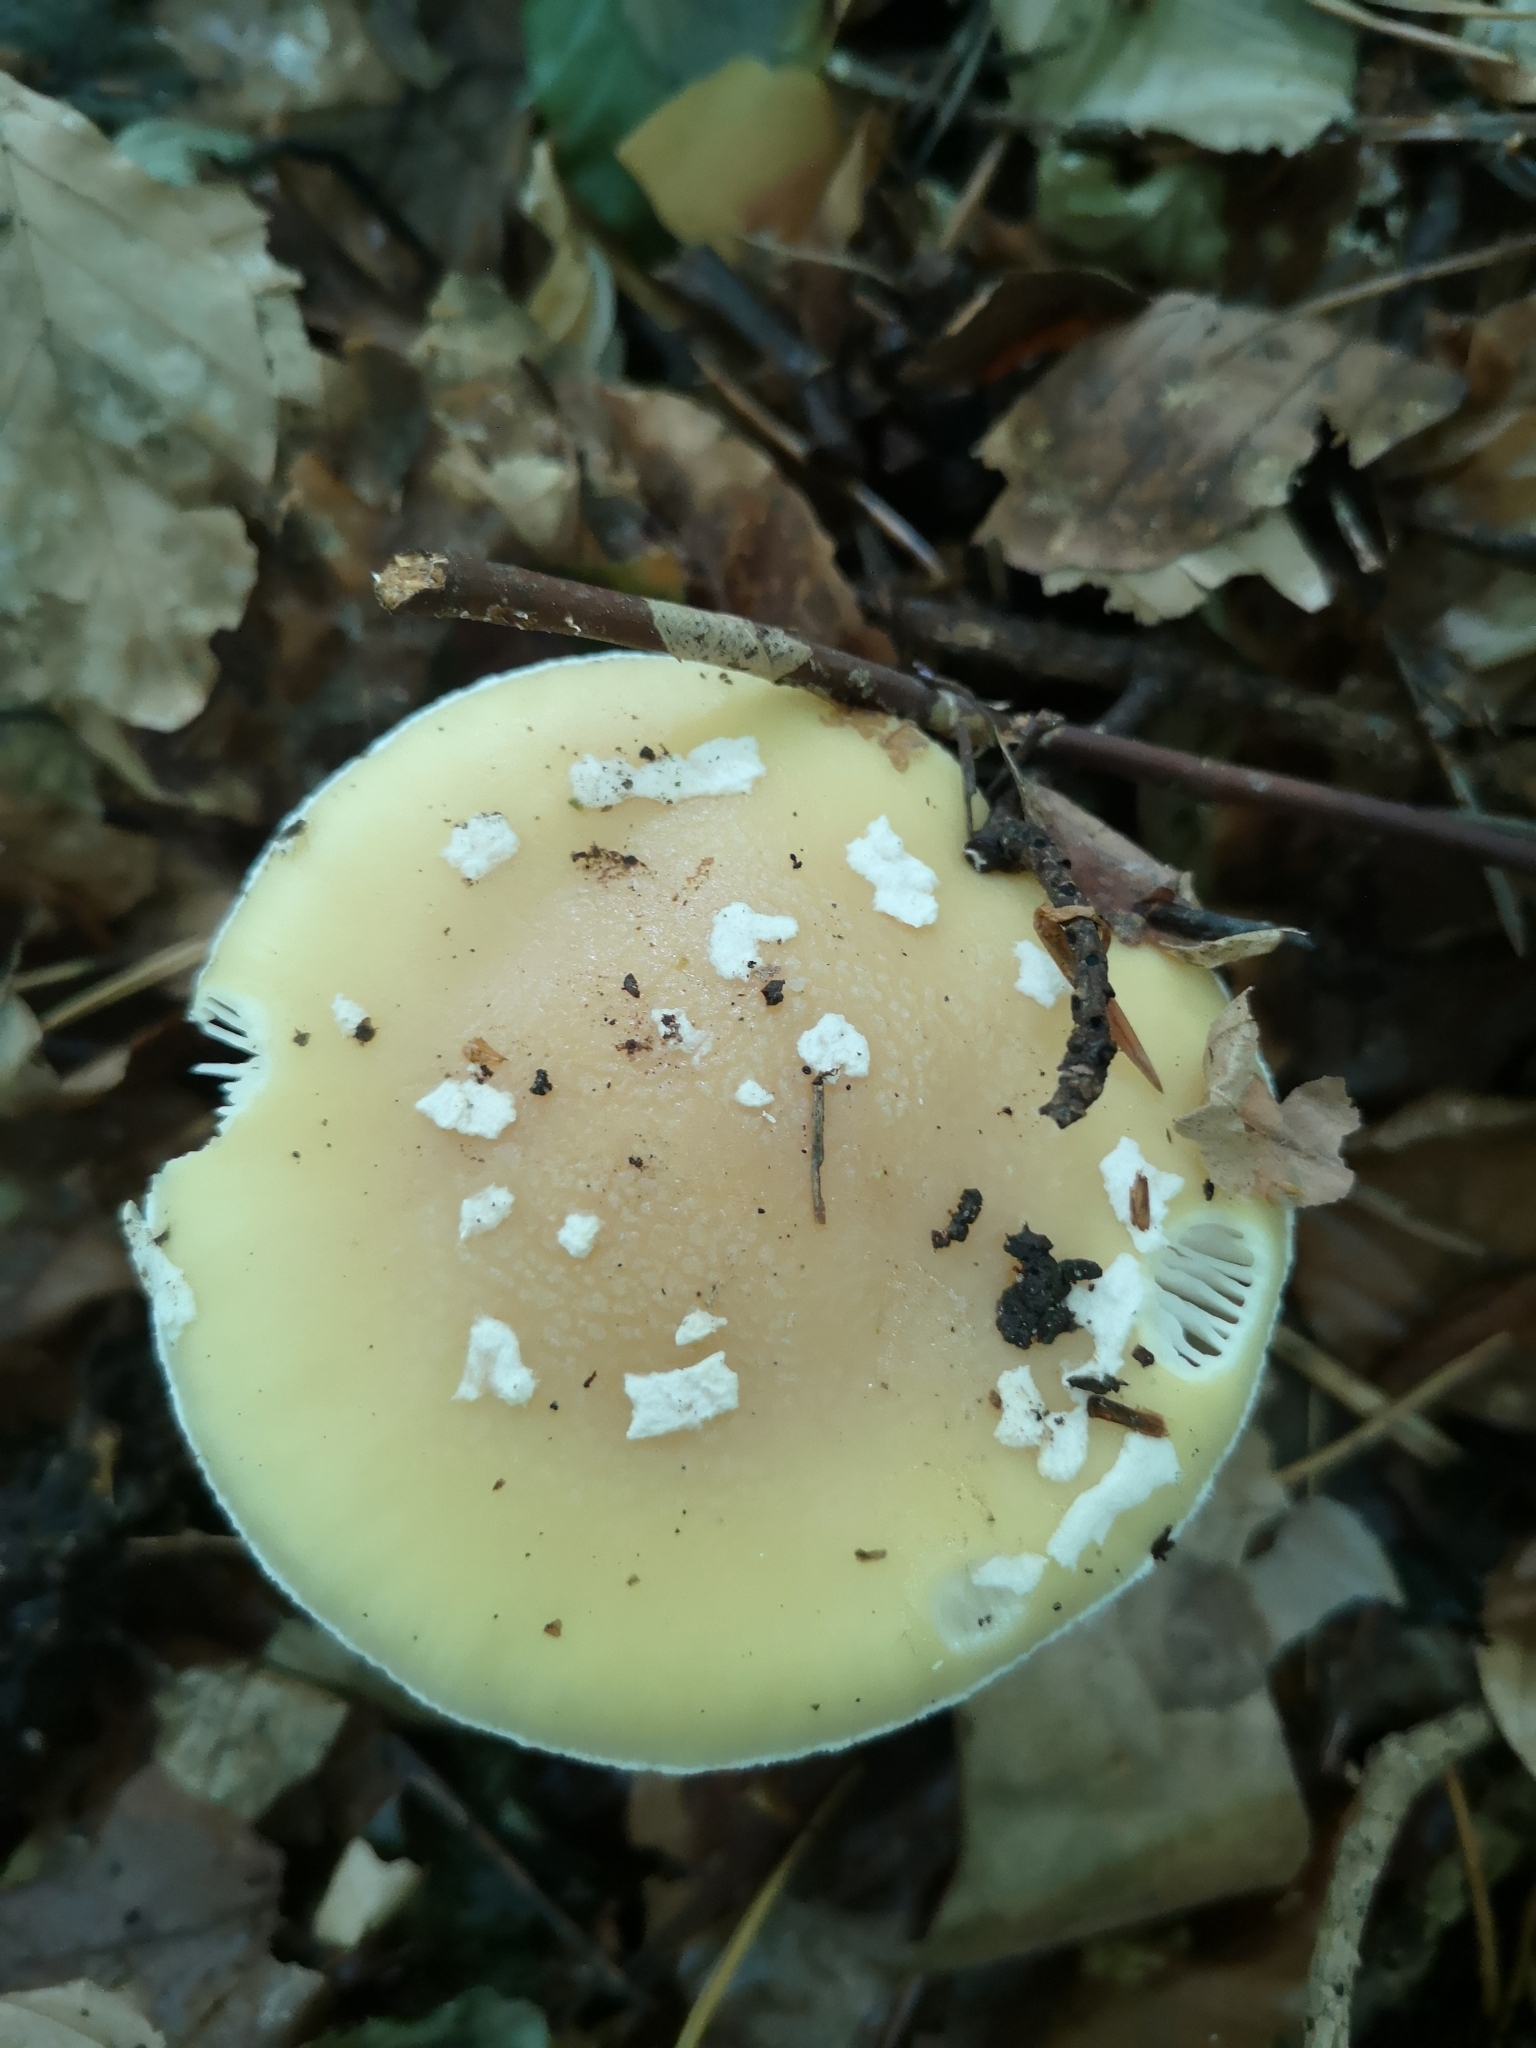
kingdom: Fungi
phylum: Basidiomycota
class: Agaricomycetes
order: Agaricales
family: Amanitaceae
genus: Amanita
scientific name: Amanita gemmata
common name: Jewelled amanita
